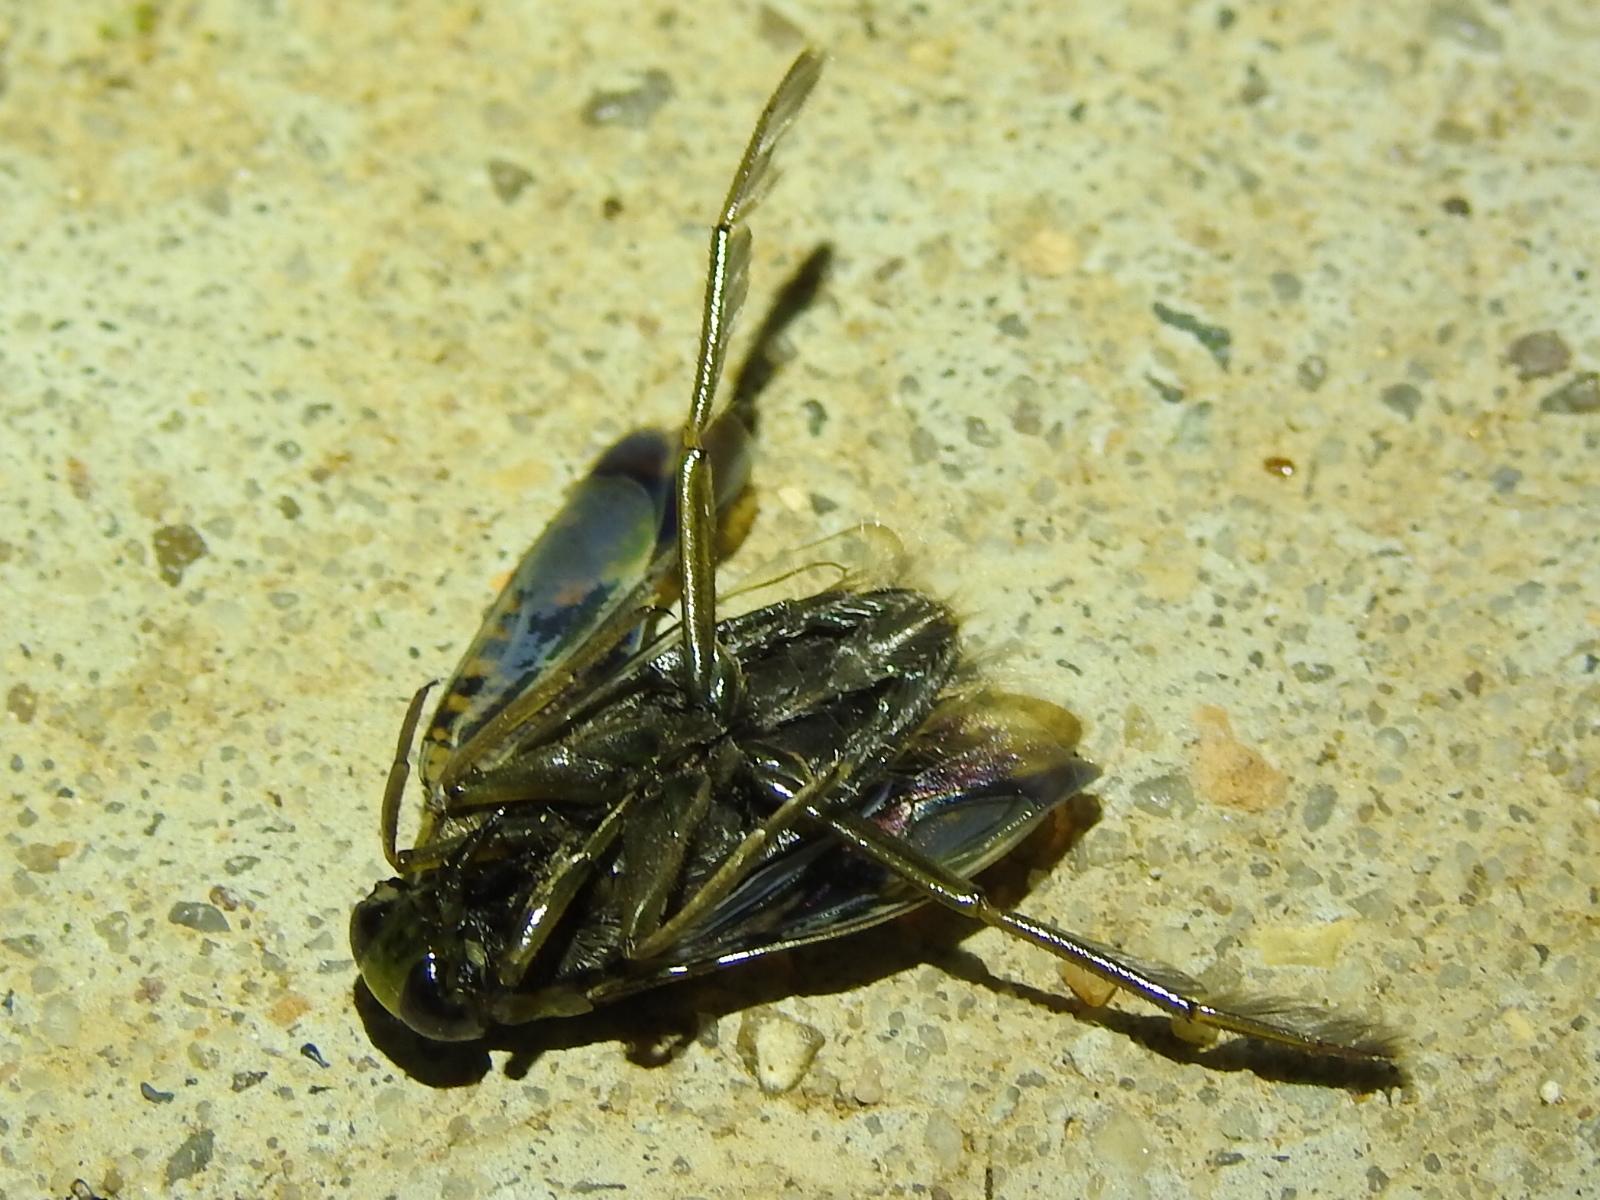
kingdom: Animalia
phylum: Arthropoda
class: Insecta
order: Hemiptera
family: Notonectidae
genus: Notonecta
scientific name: Notonecta irrorata
